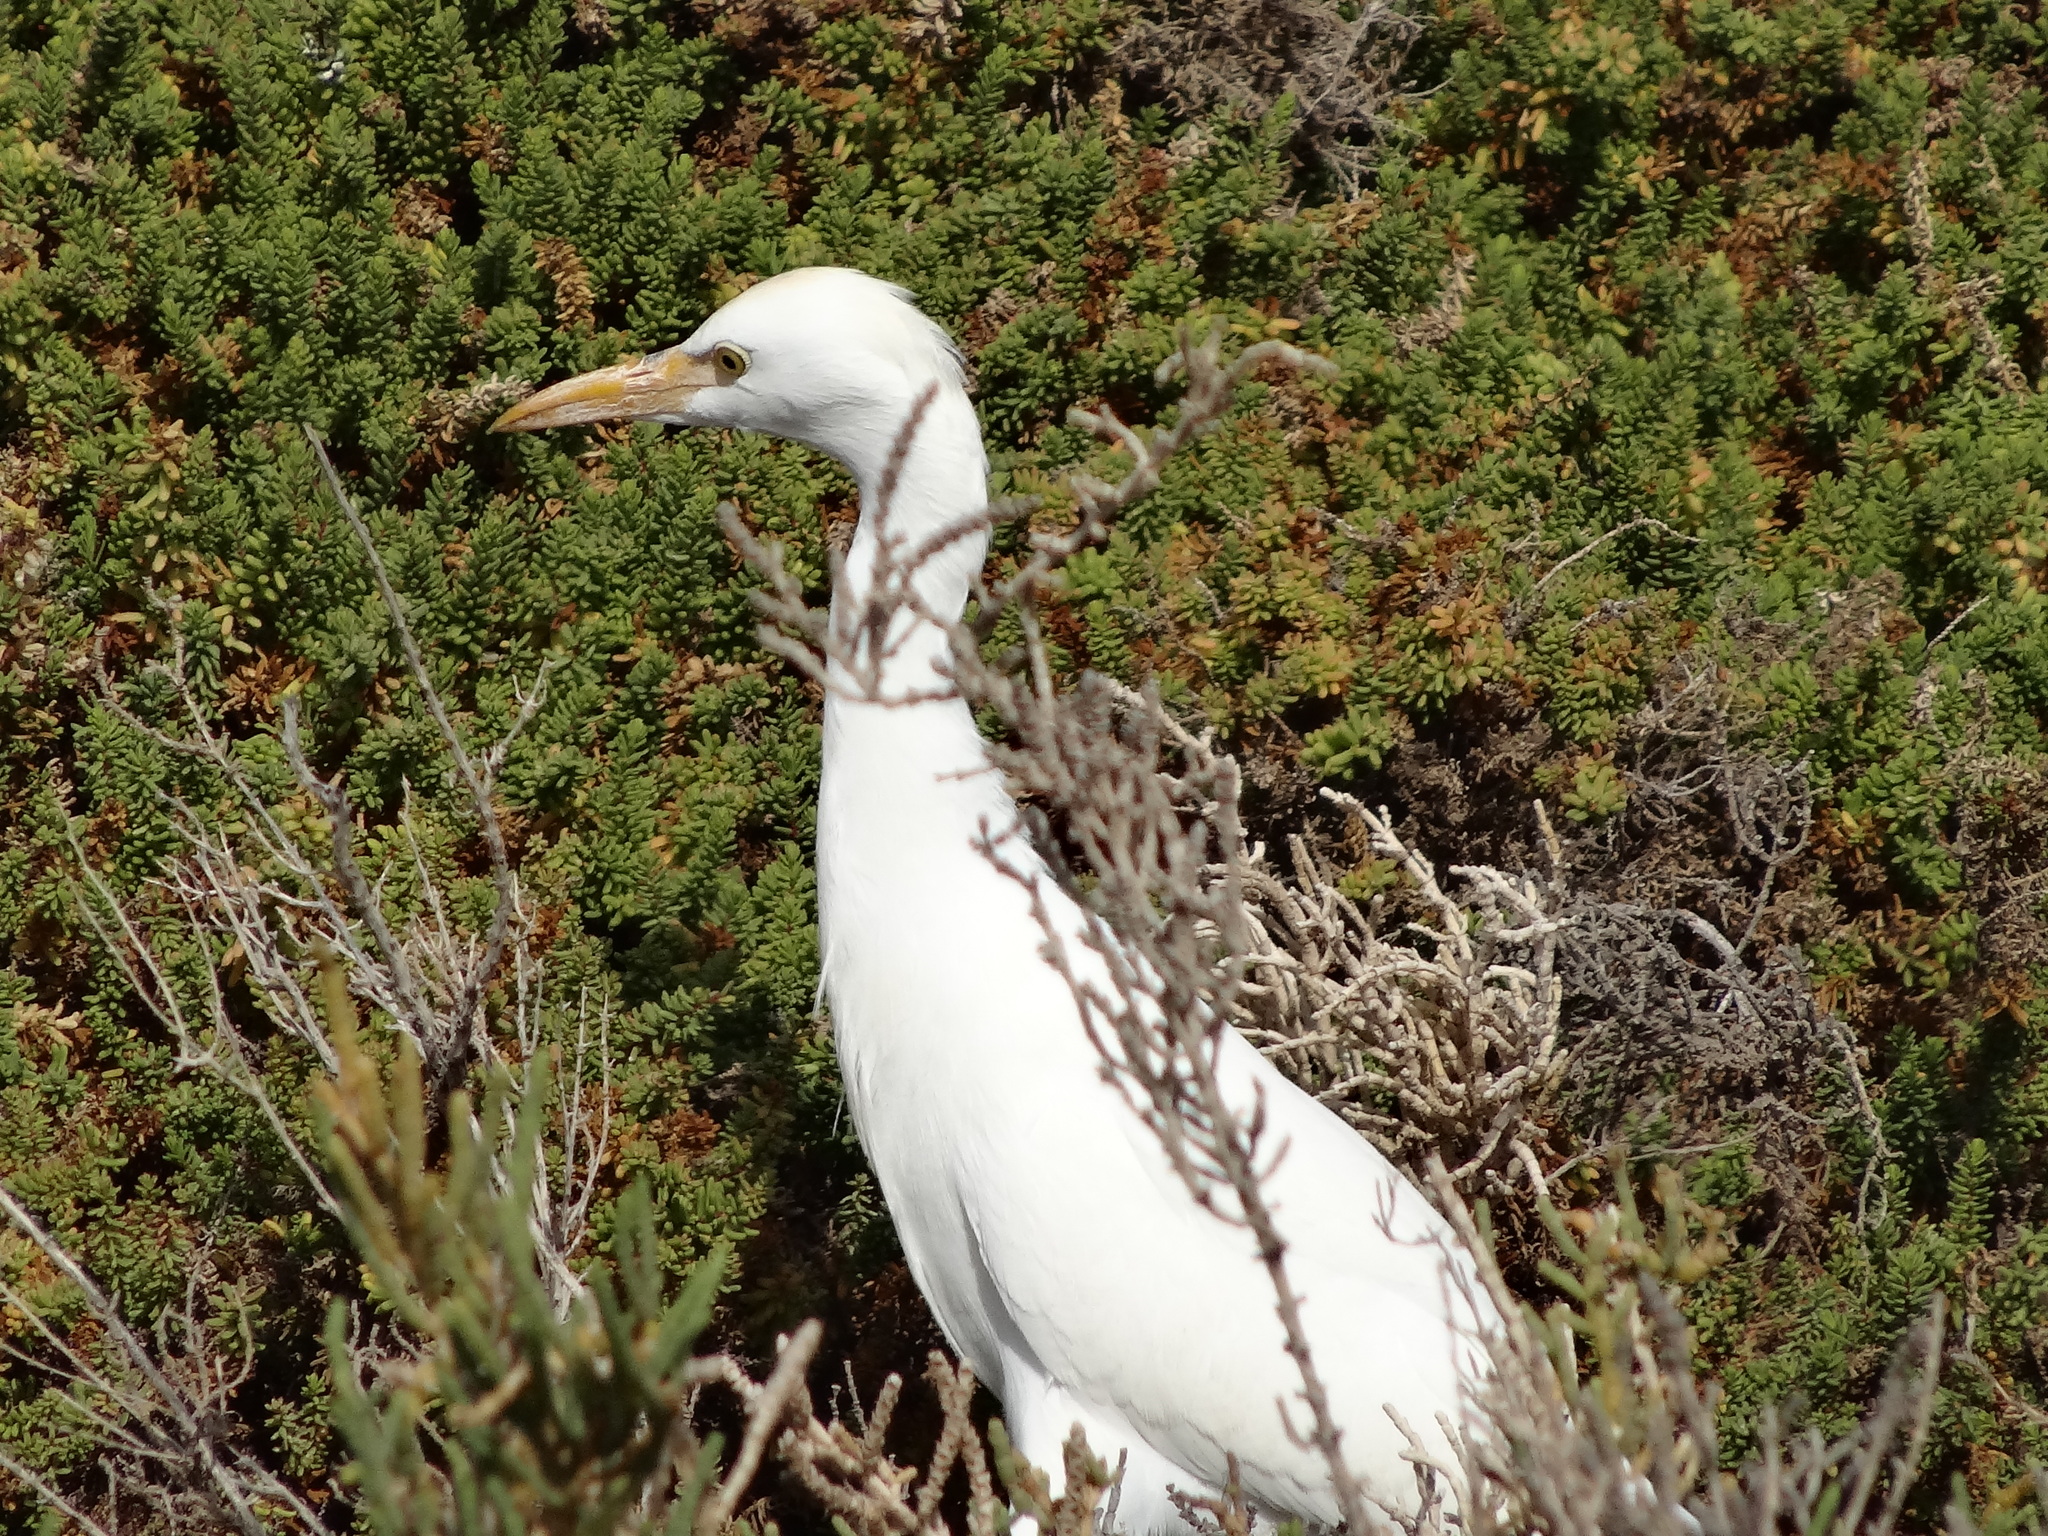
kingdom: Animalia
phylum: Chordata
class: Aves
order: Pelecaniformes
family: Ardeidae
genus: Bubulcus
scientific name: Bubulcus ibis
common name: Cattle egret
